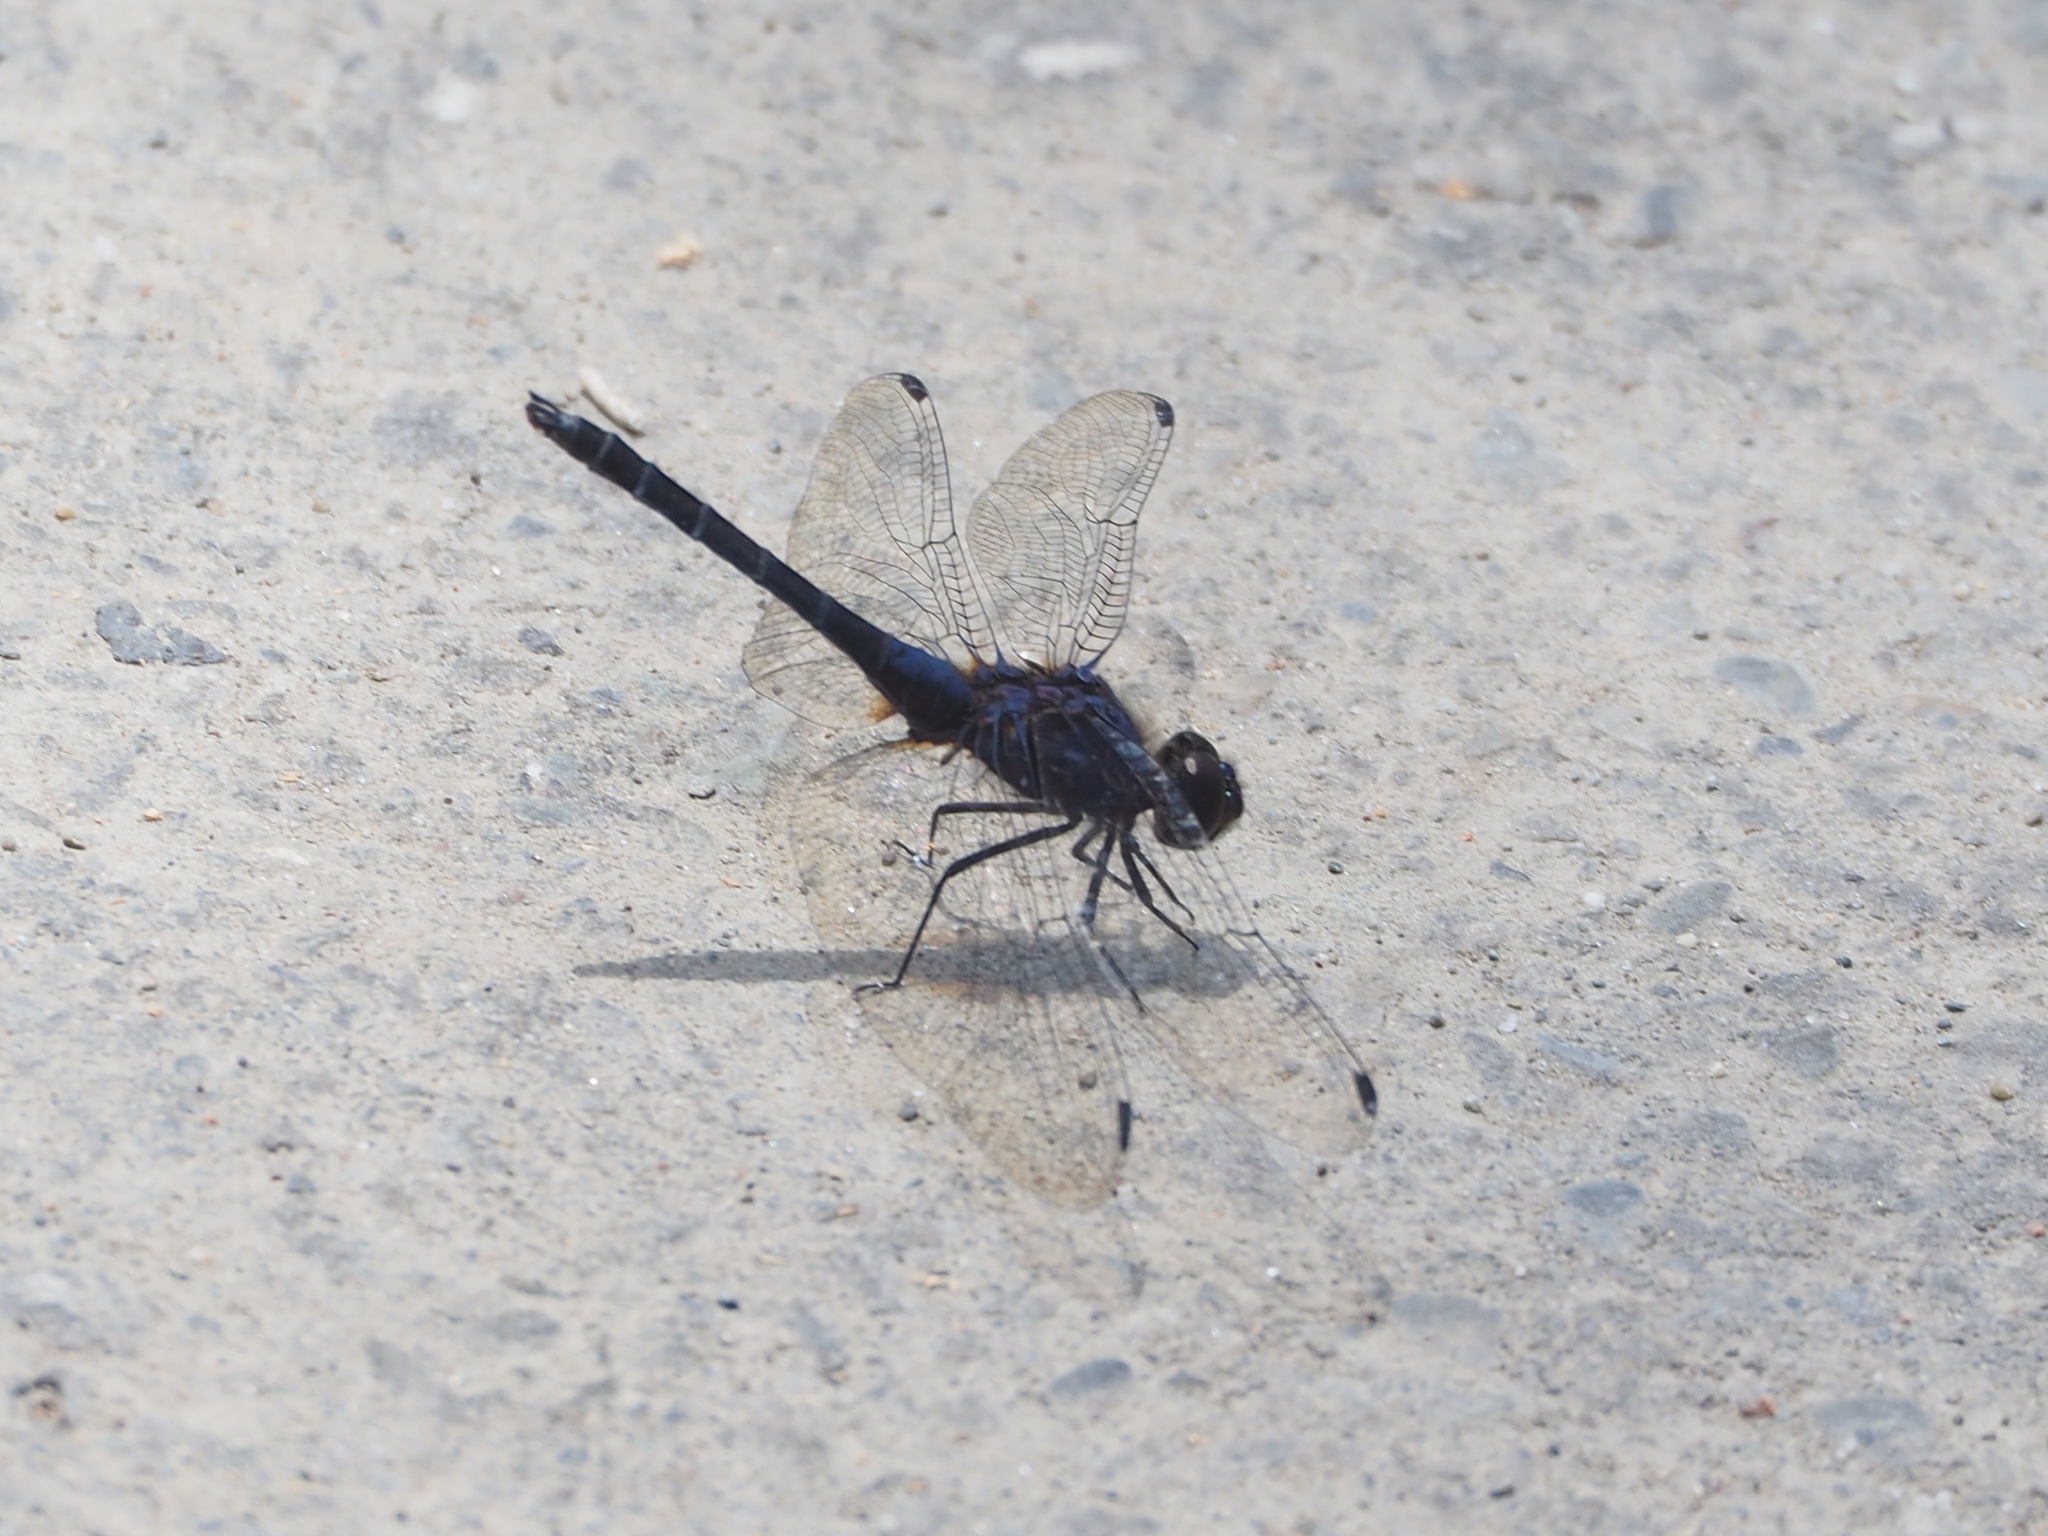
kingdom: Animalia
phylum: Arthropoda
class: Insecta
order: Odonata
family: Libellulidae
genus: Trithemis
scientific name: Trithemis festiva
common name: Indigo dropwing
